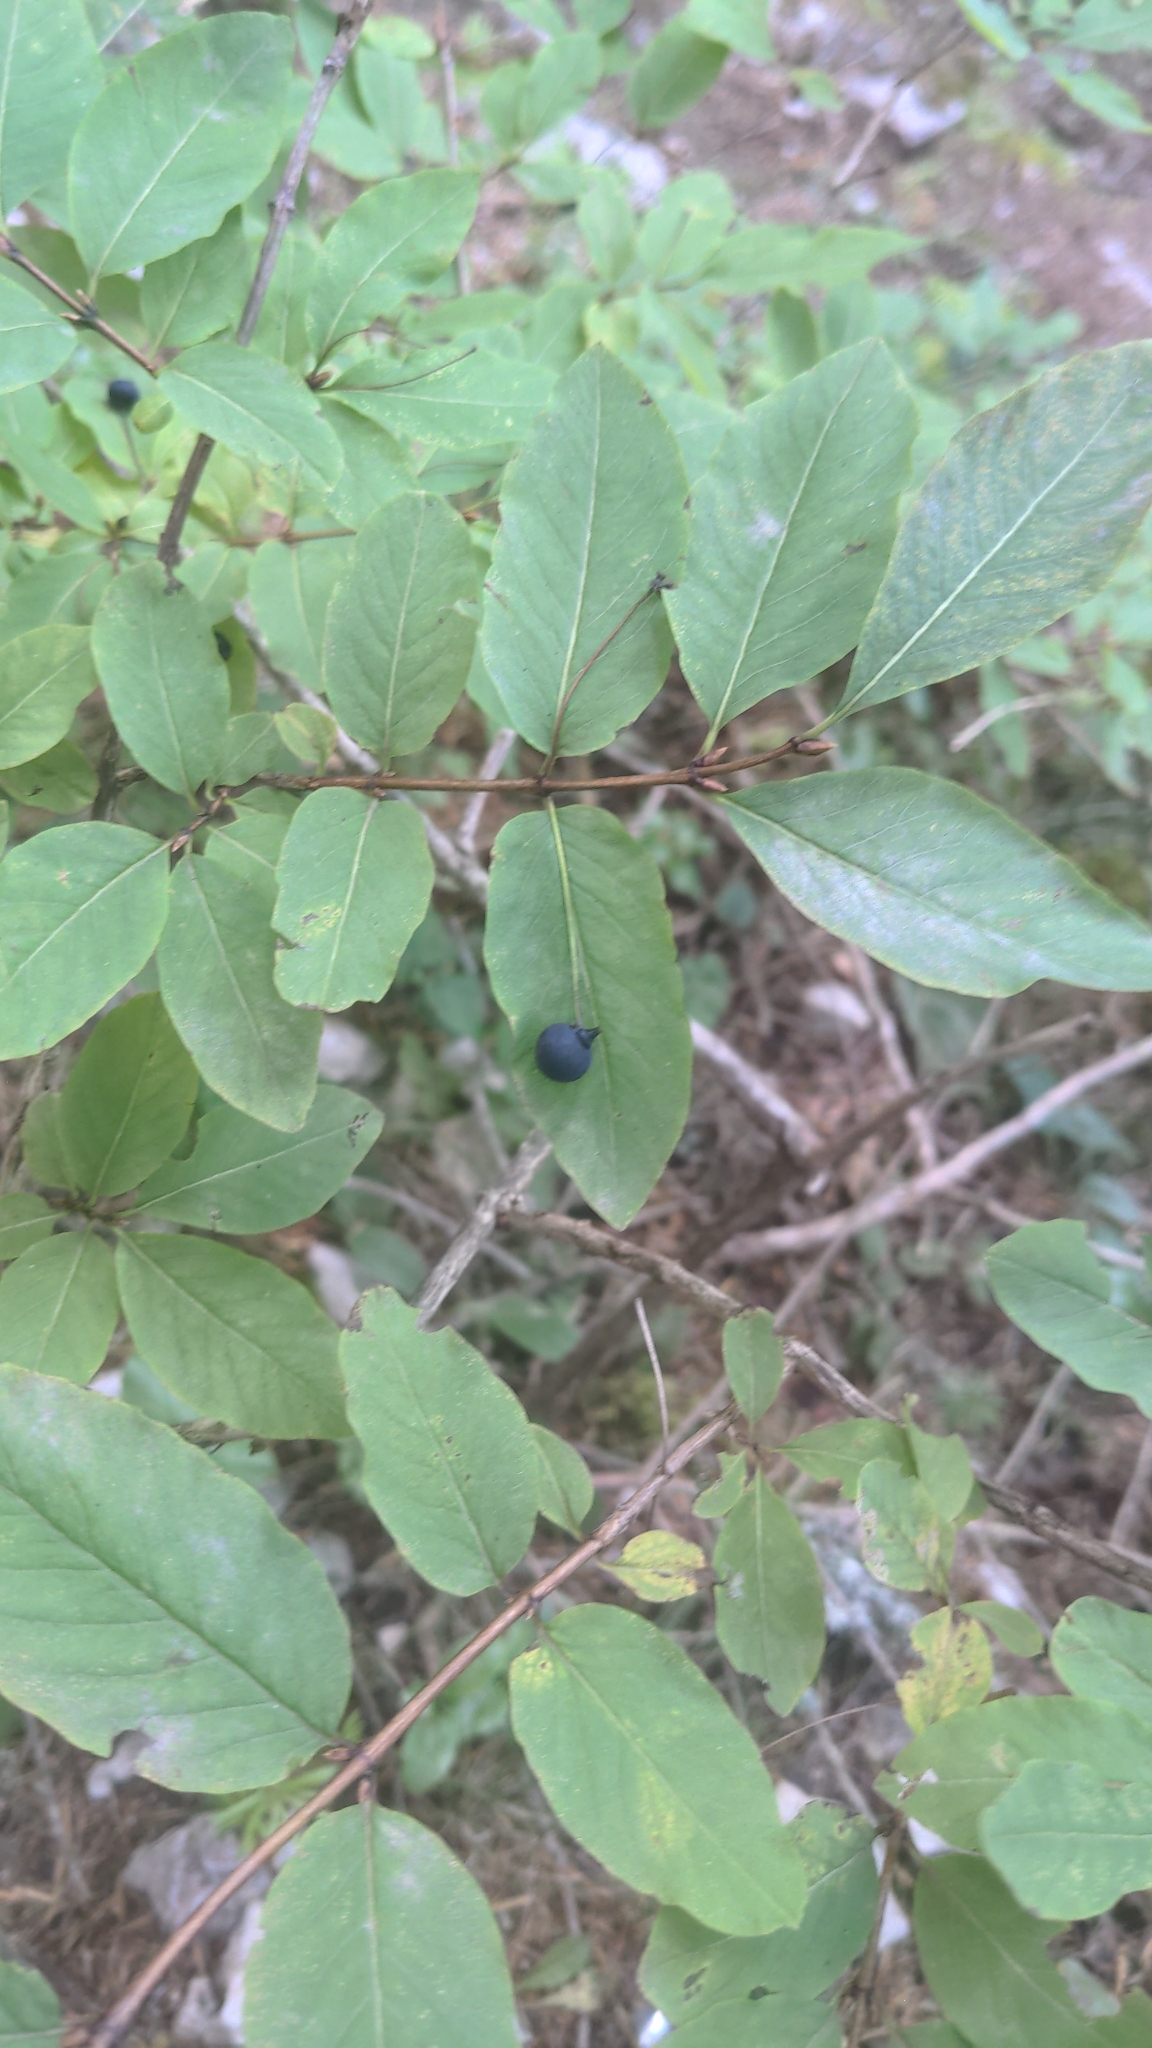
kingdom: Plantae
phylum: Tracheophyta
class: Magnoliopsida
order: Dipsacales
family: Caprifoliaceae
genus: Lonicera
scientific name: Lonicera nigra
